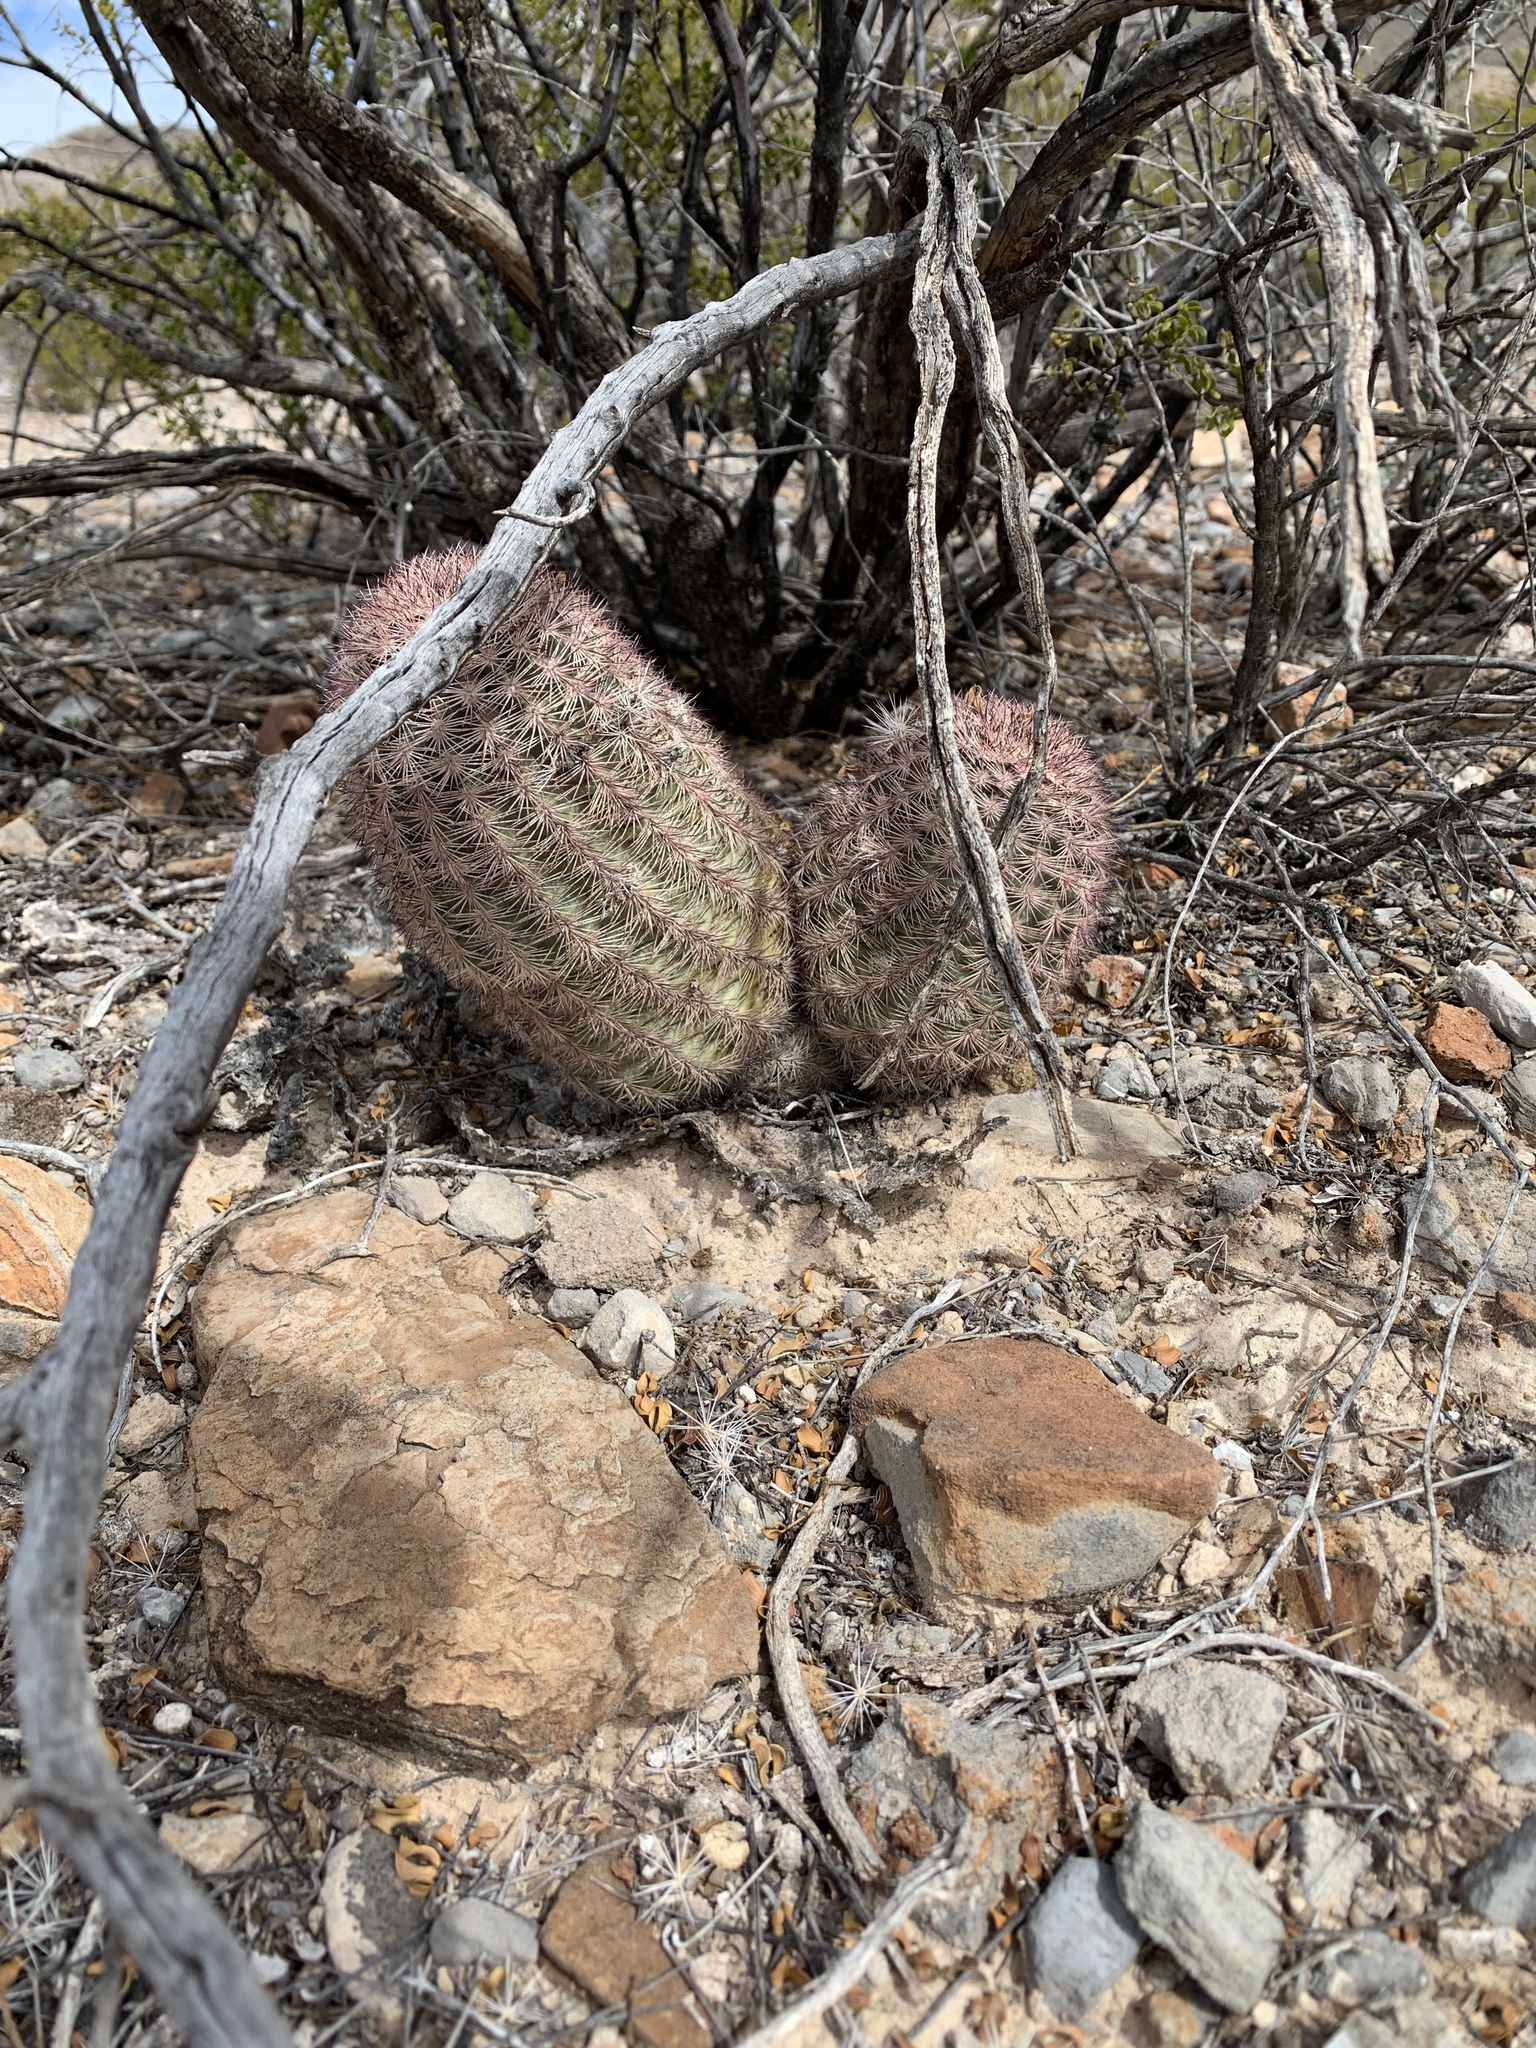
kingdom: Plantae
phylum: Tracheophyta
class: Magnoliopsida
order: Caryophyllales
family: Cactaceae
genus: Echinocereus
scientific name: Echinocereus dasyacanthus
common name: Spiny hedgehog cactus
